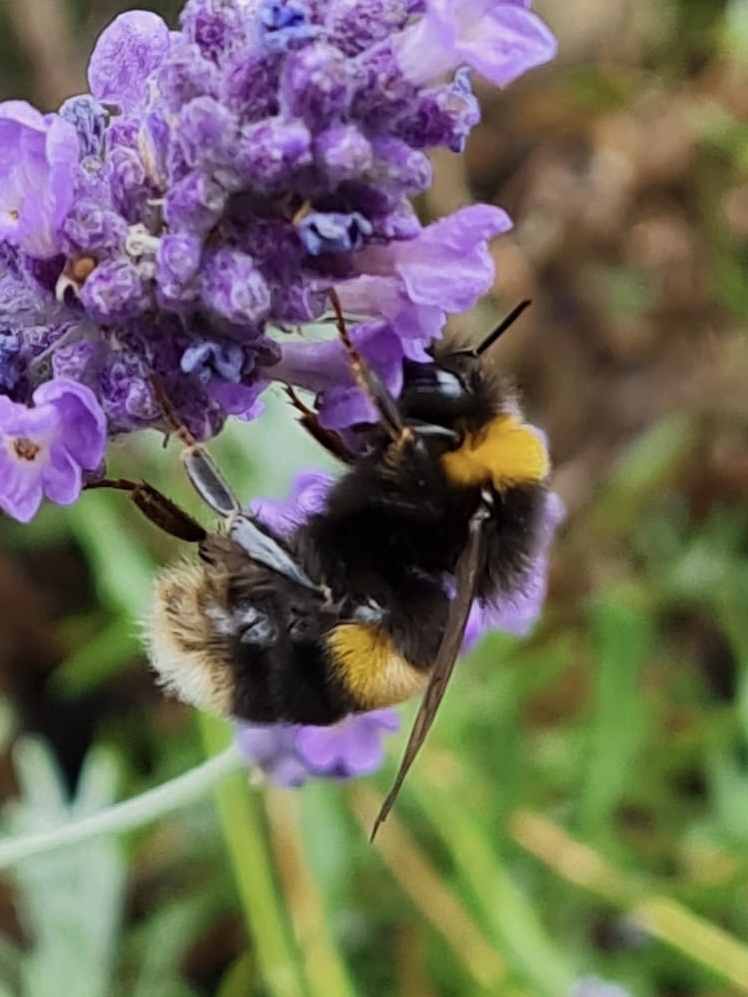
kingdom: Animalia
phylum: Arthropoda
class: Insecta
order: Hymenoptera
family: Apidae
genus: Bombus
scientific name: Bombus terrestris
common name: Buff-tailed bumblebee
